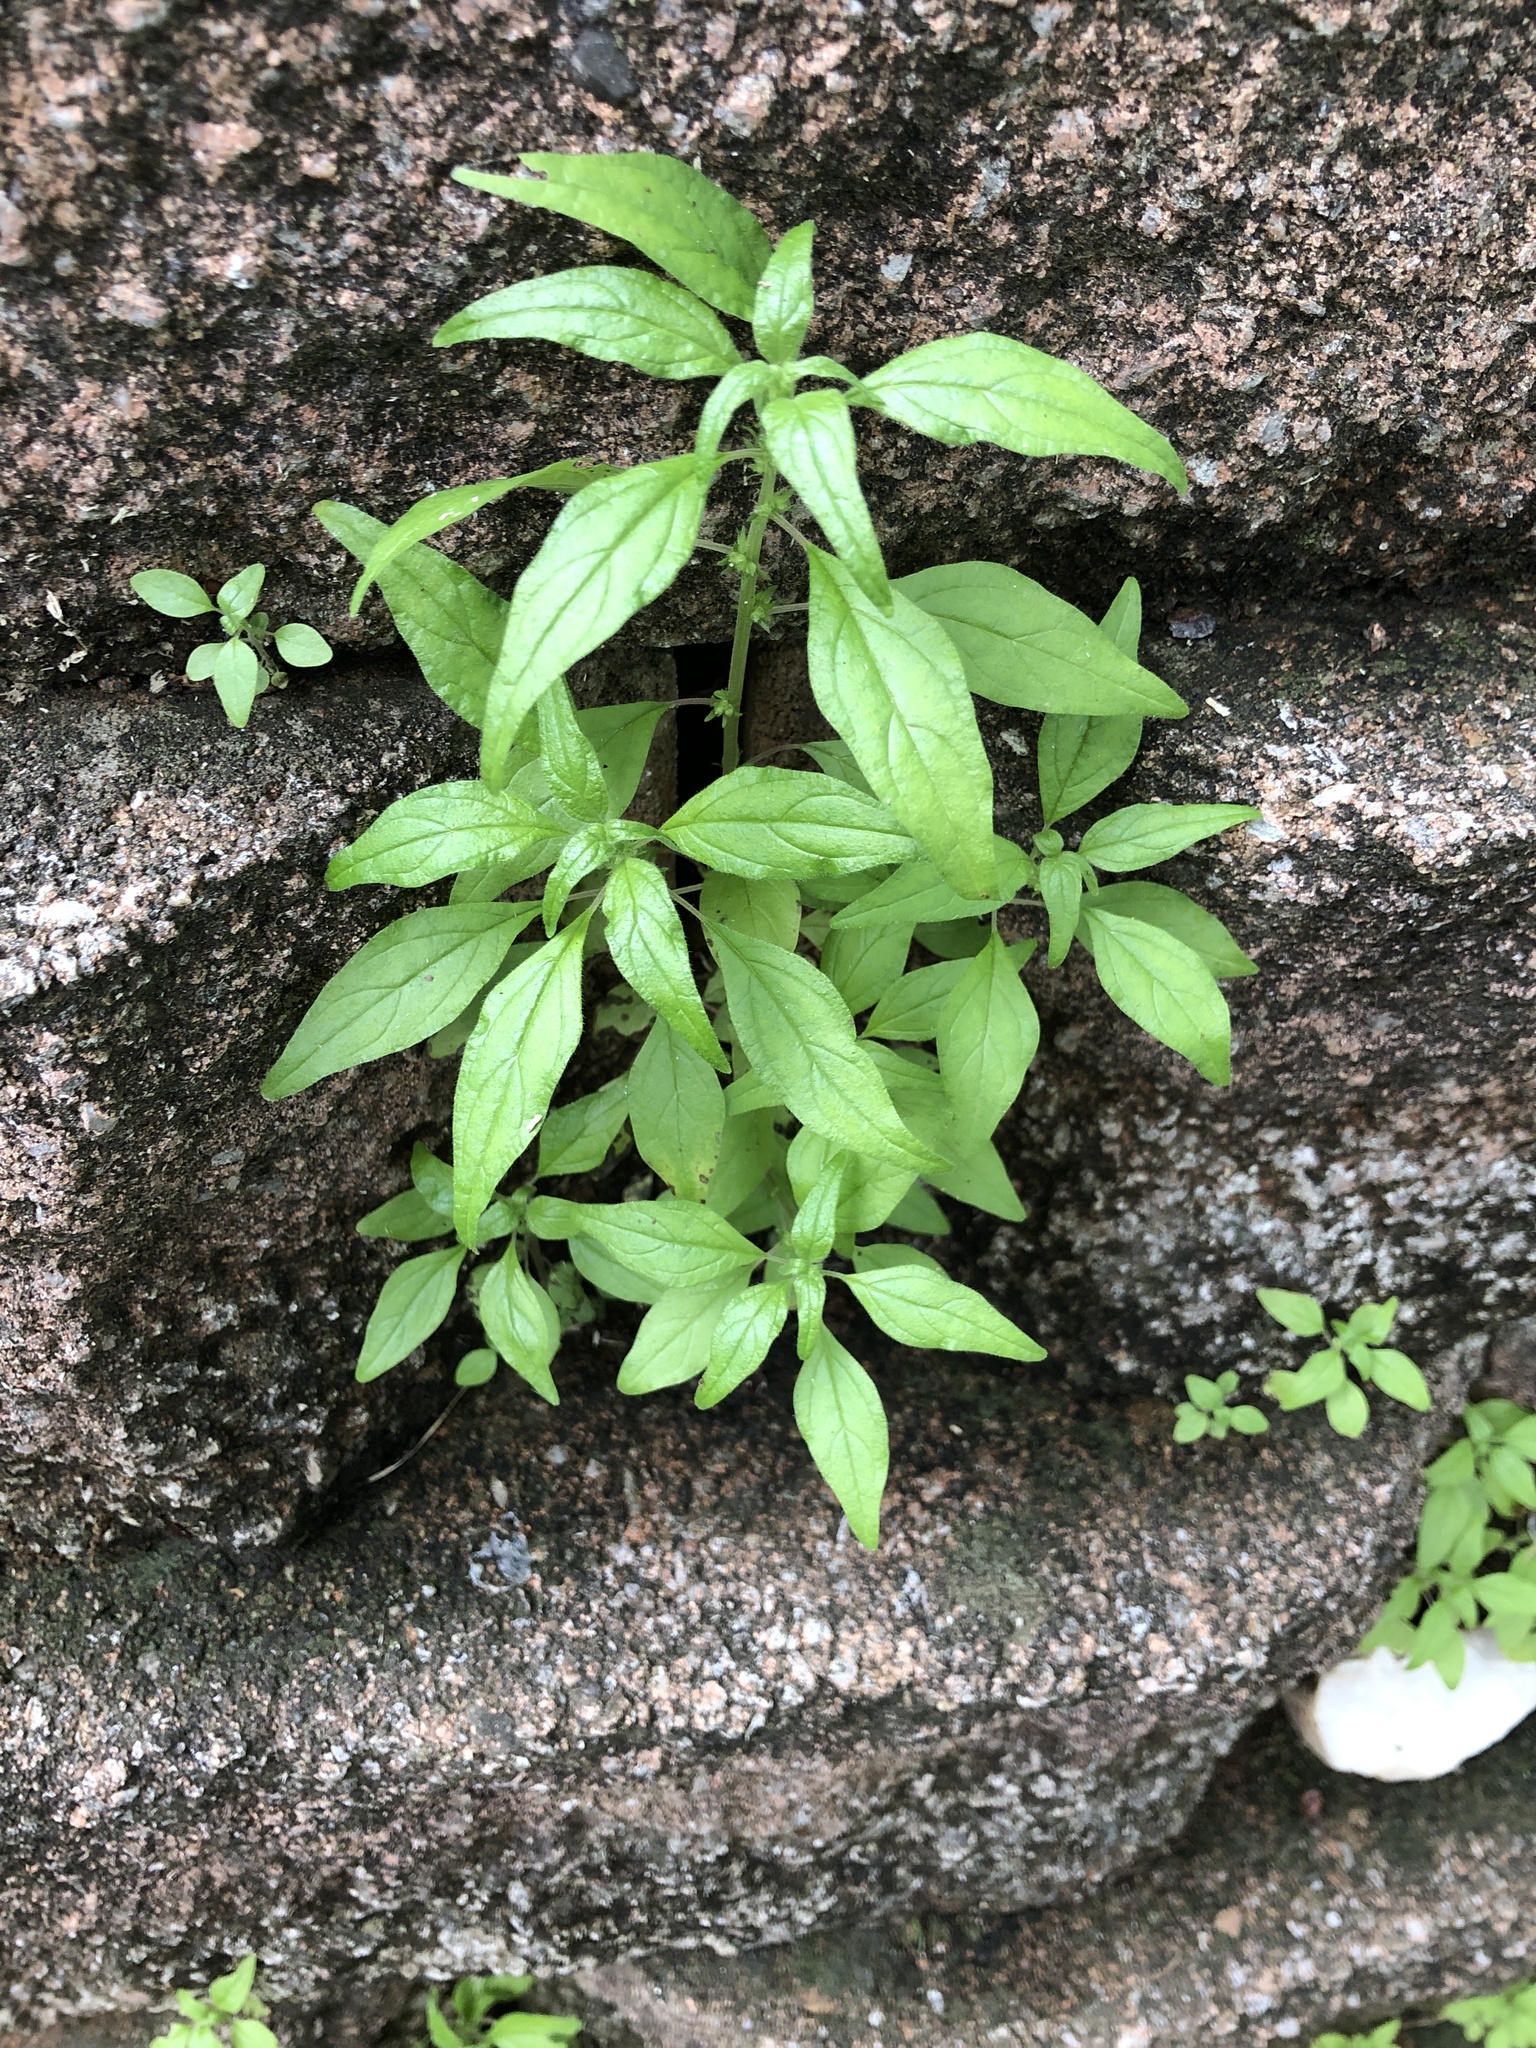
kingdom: Plantae
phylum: Tracheophyta
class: Magnoliopsida
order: Rosales
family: Urticaceae
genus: Parietaria
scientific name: Parietaria pensylvanica
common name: Pennsylvania pellitory
